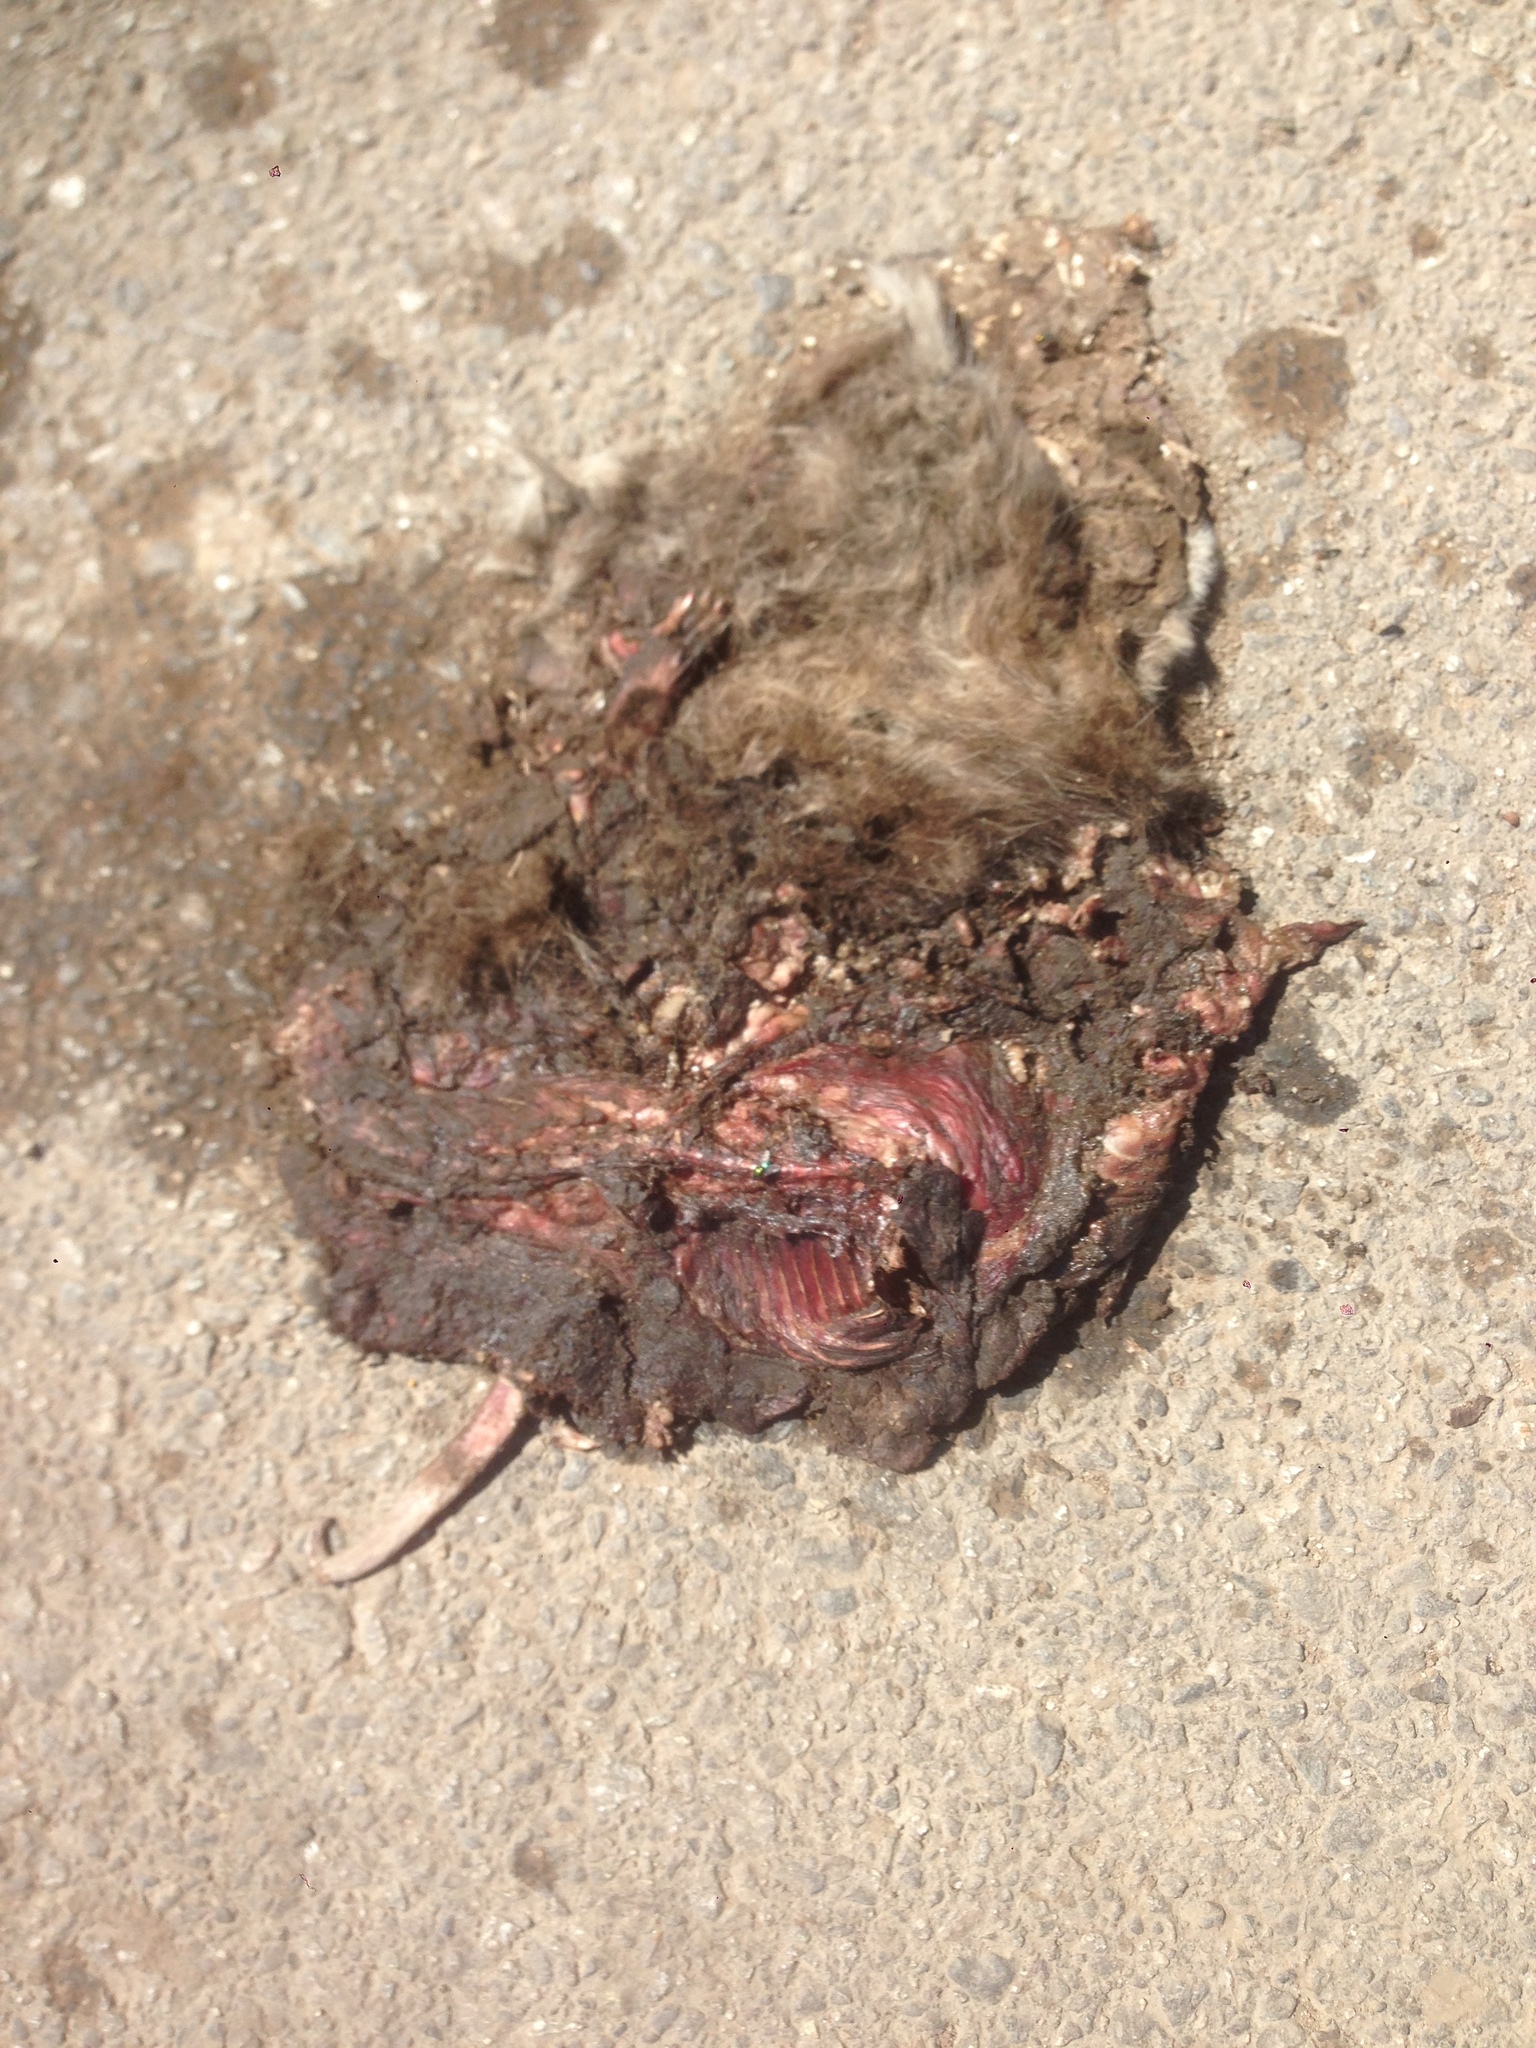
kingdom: Animalia
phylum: Chordata
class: Mammalia
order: Didelphimorphia
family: Didelphidae
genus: Didelphis
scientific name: Didelphis virginiana
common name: Virginia opossum
